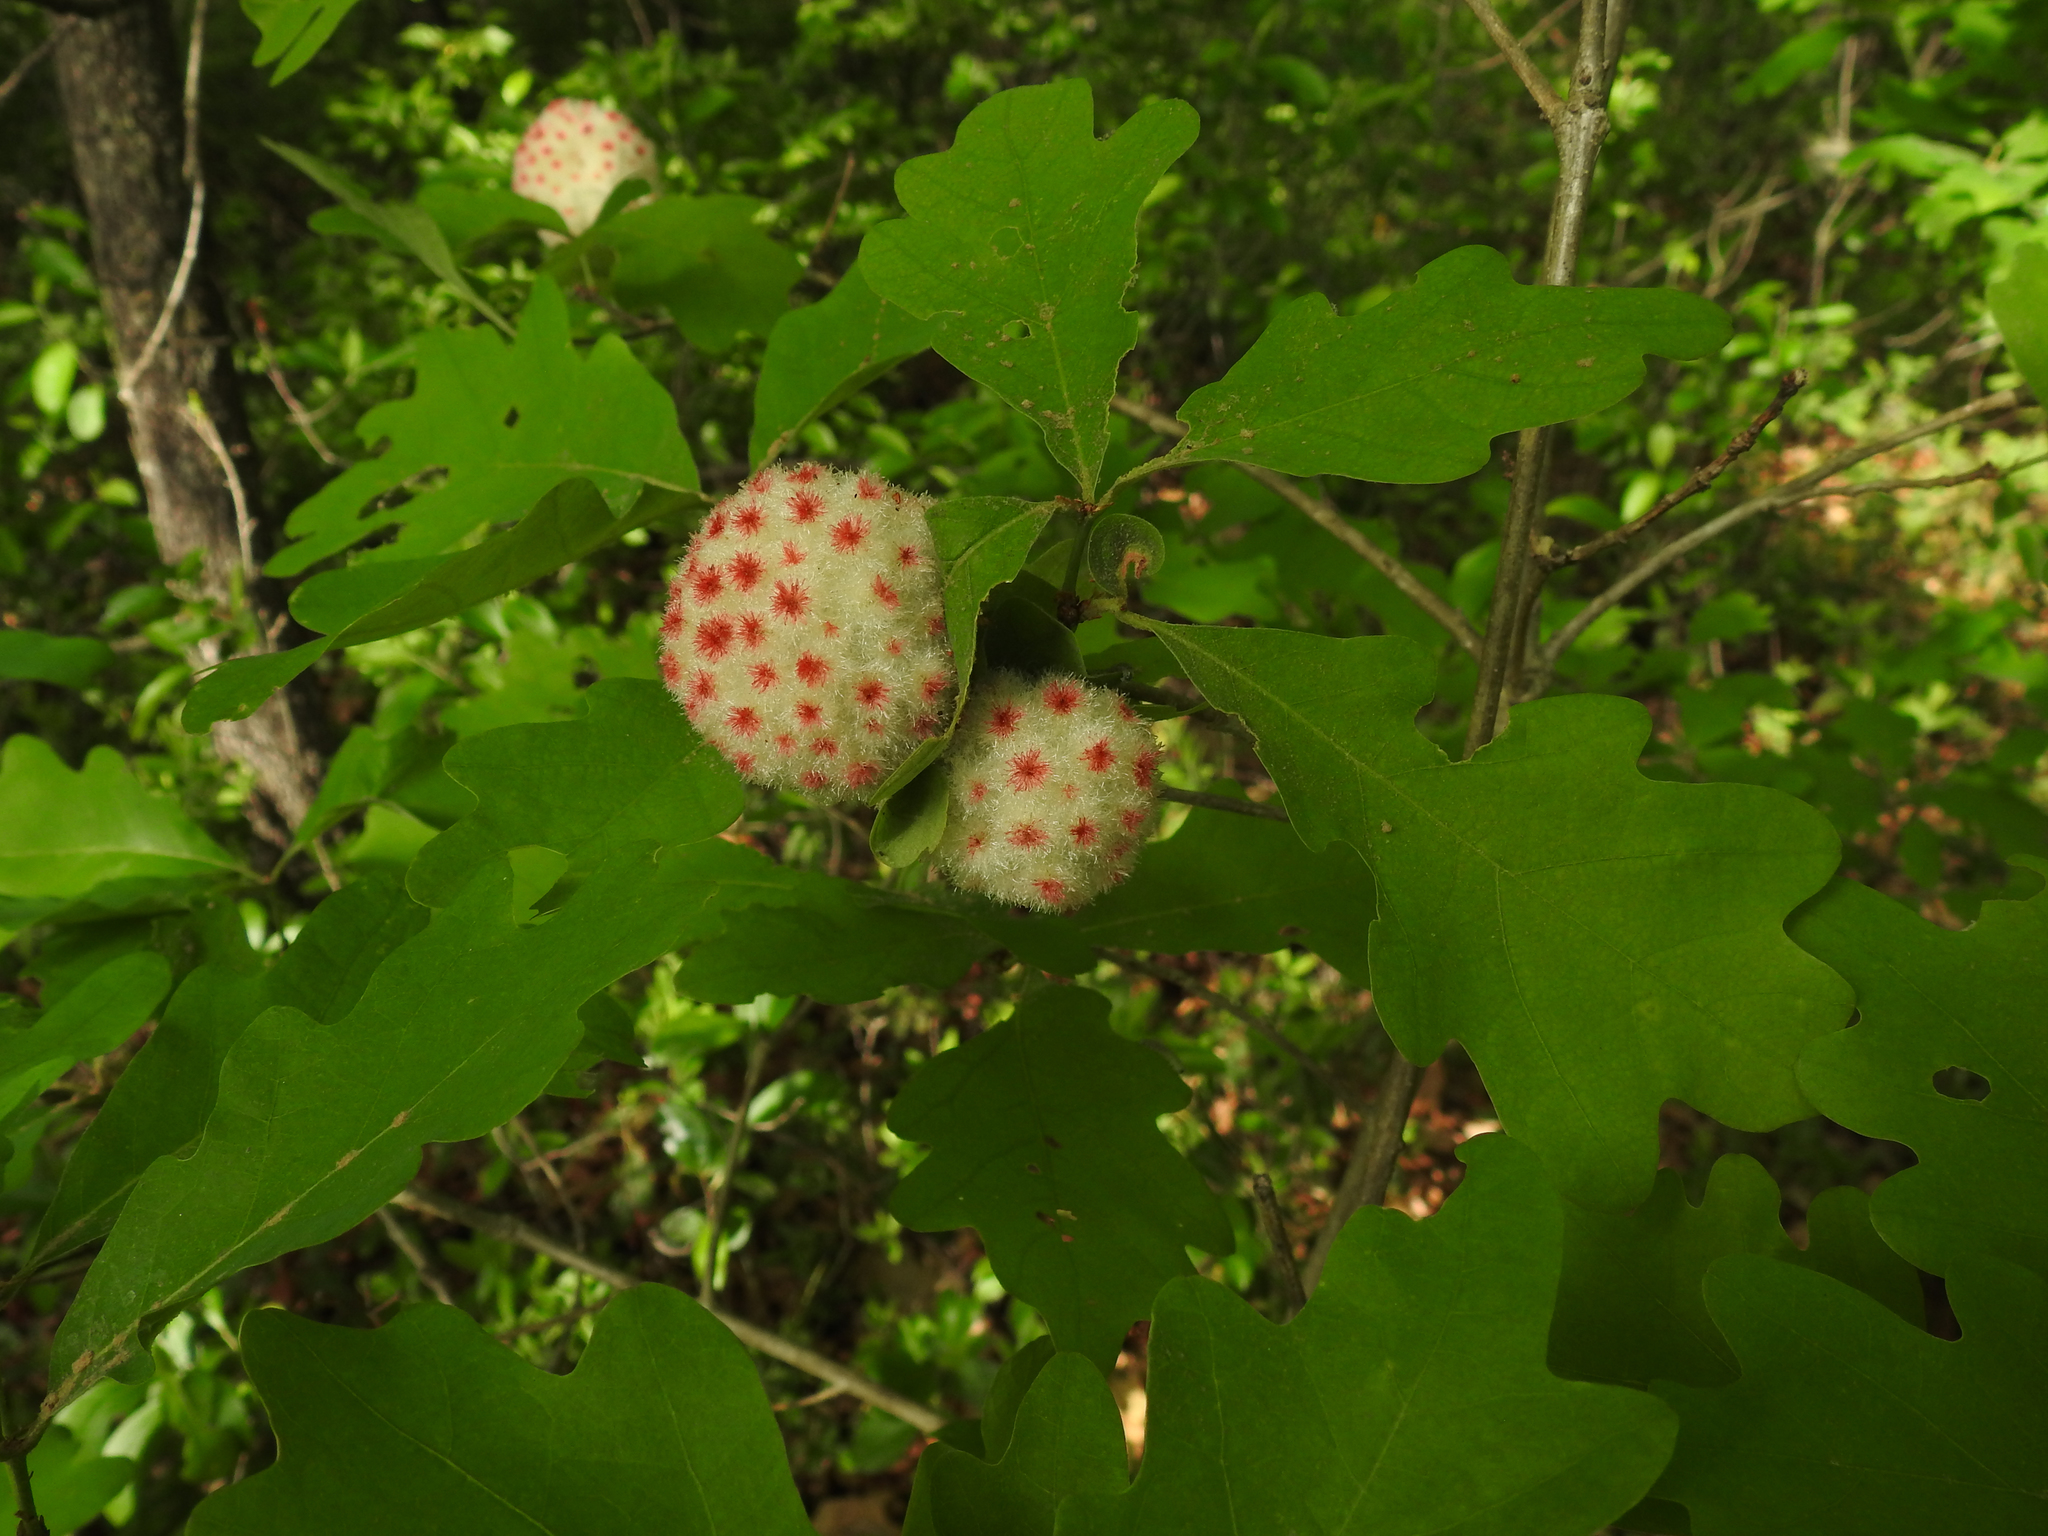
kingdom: Animalia
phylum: Arthropoda
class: Insecta
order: Hymenoptera
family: Cynipidae
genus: Callirhytis
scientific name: Callirhytis
